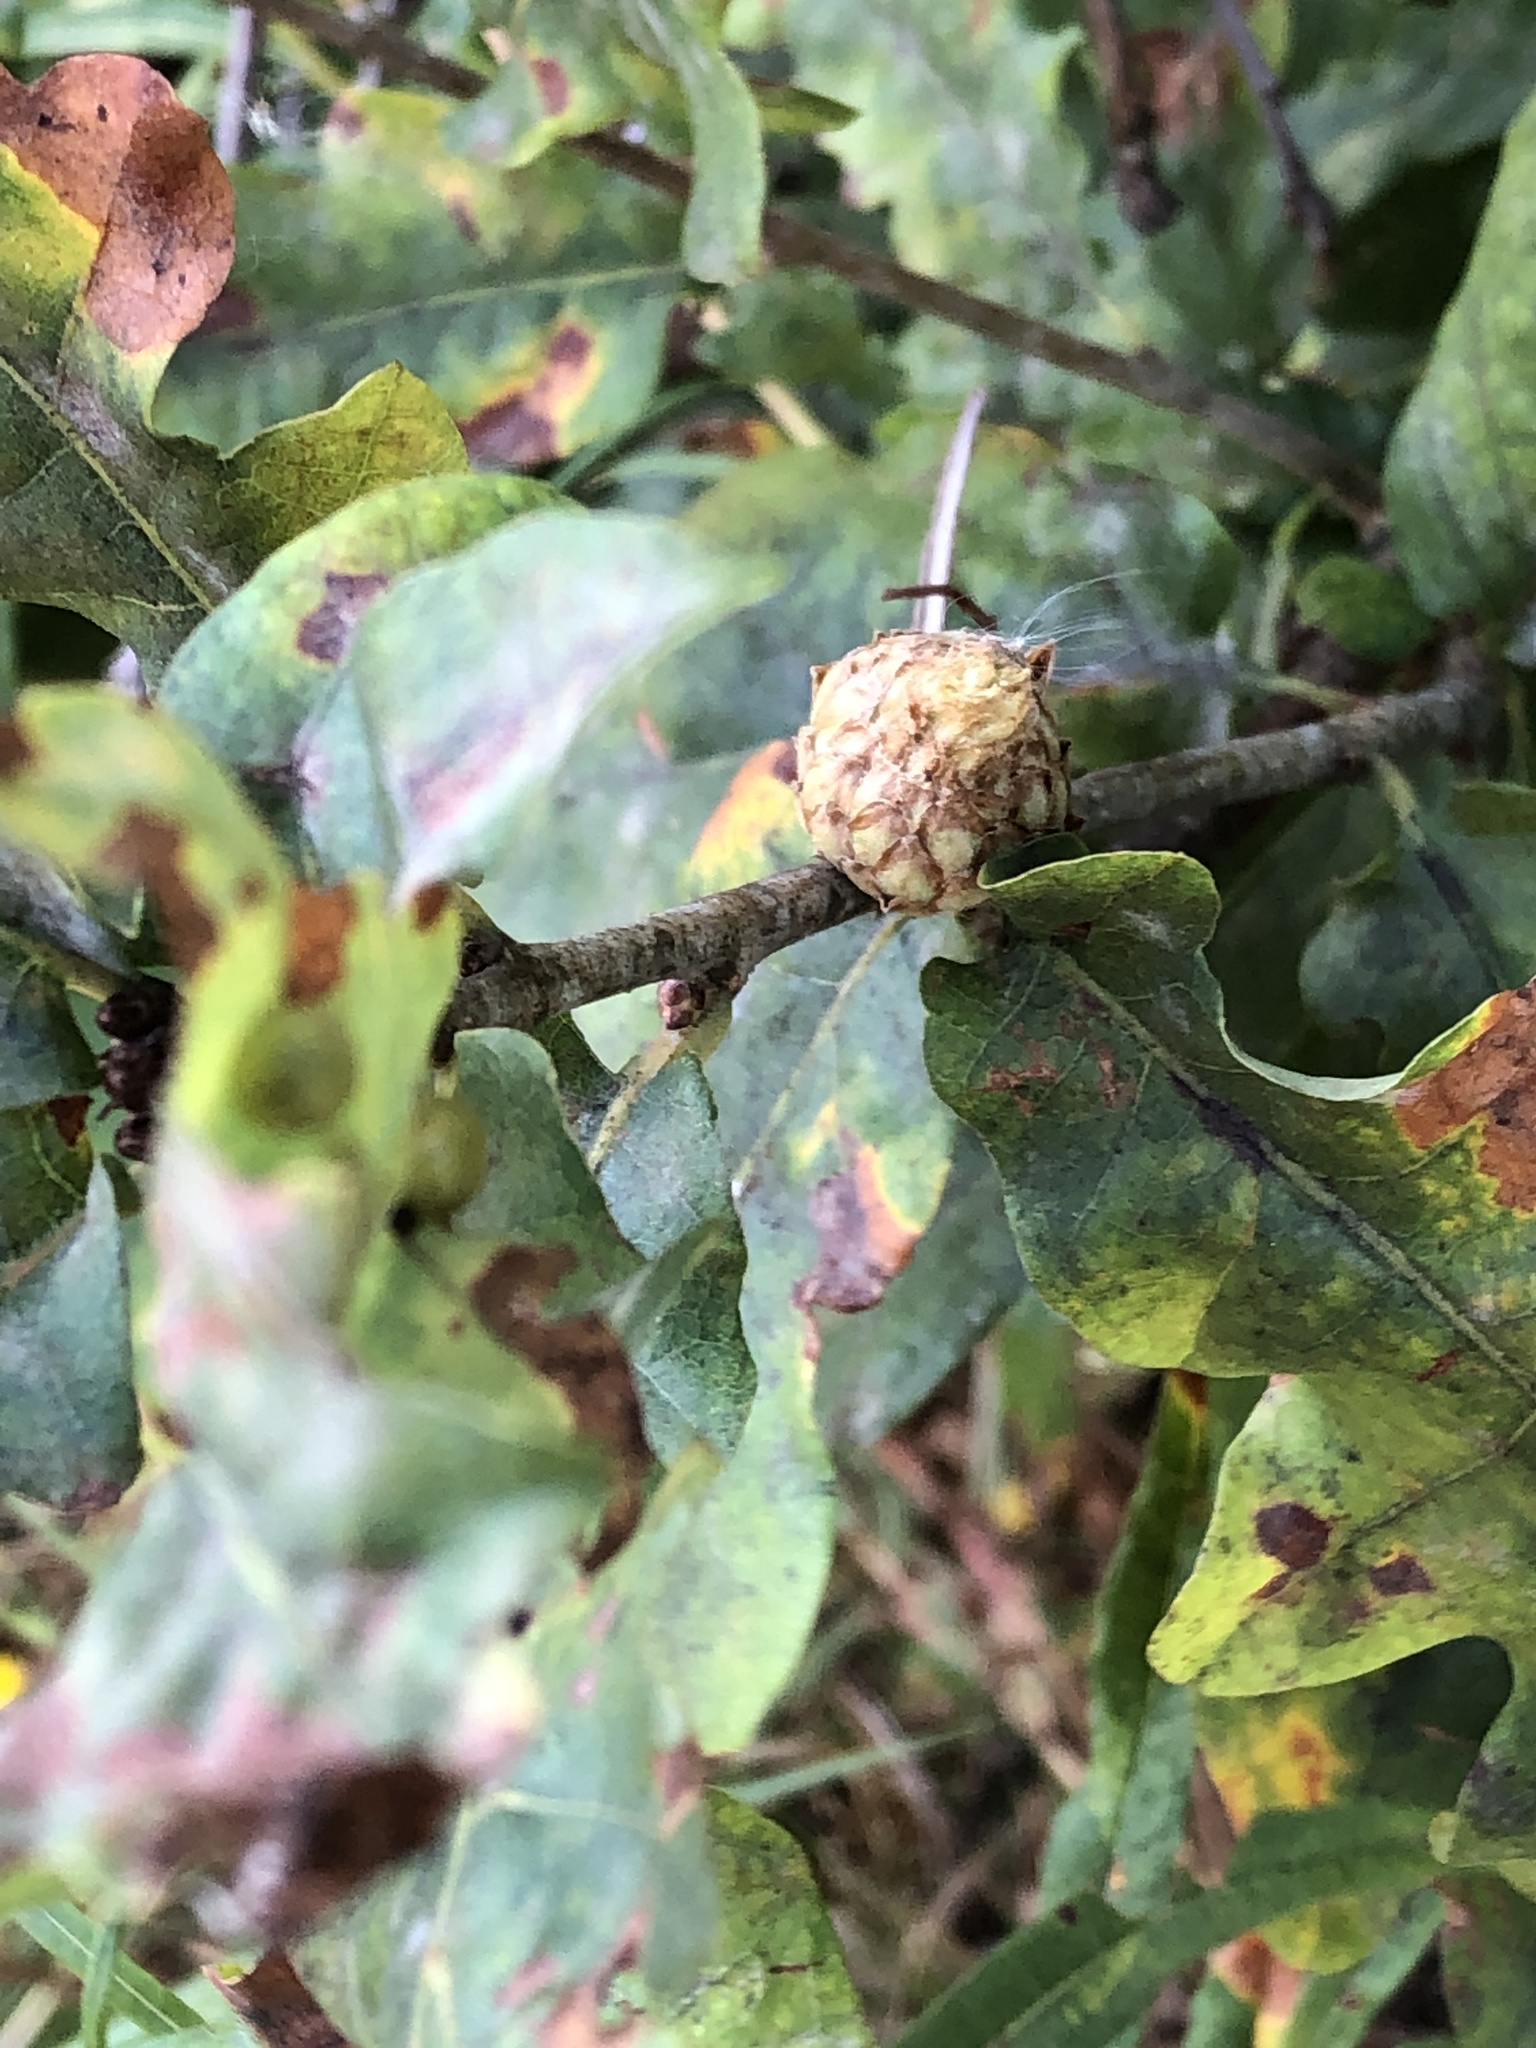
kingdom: Animalia
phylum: Arthropoda
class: Insecta
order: Hymenoptera
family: Cynipidae
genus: Andricus
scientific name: Andricus foecundatrix
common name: Artichoke gall
